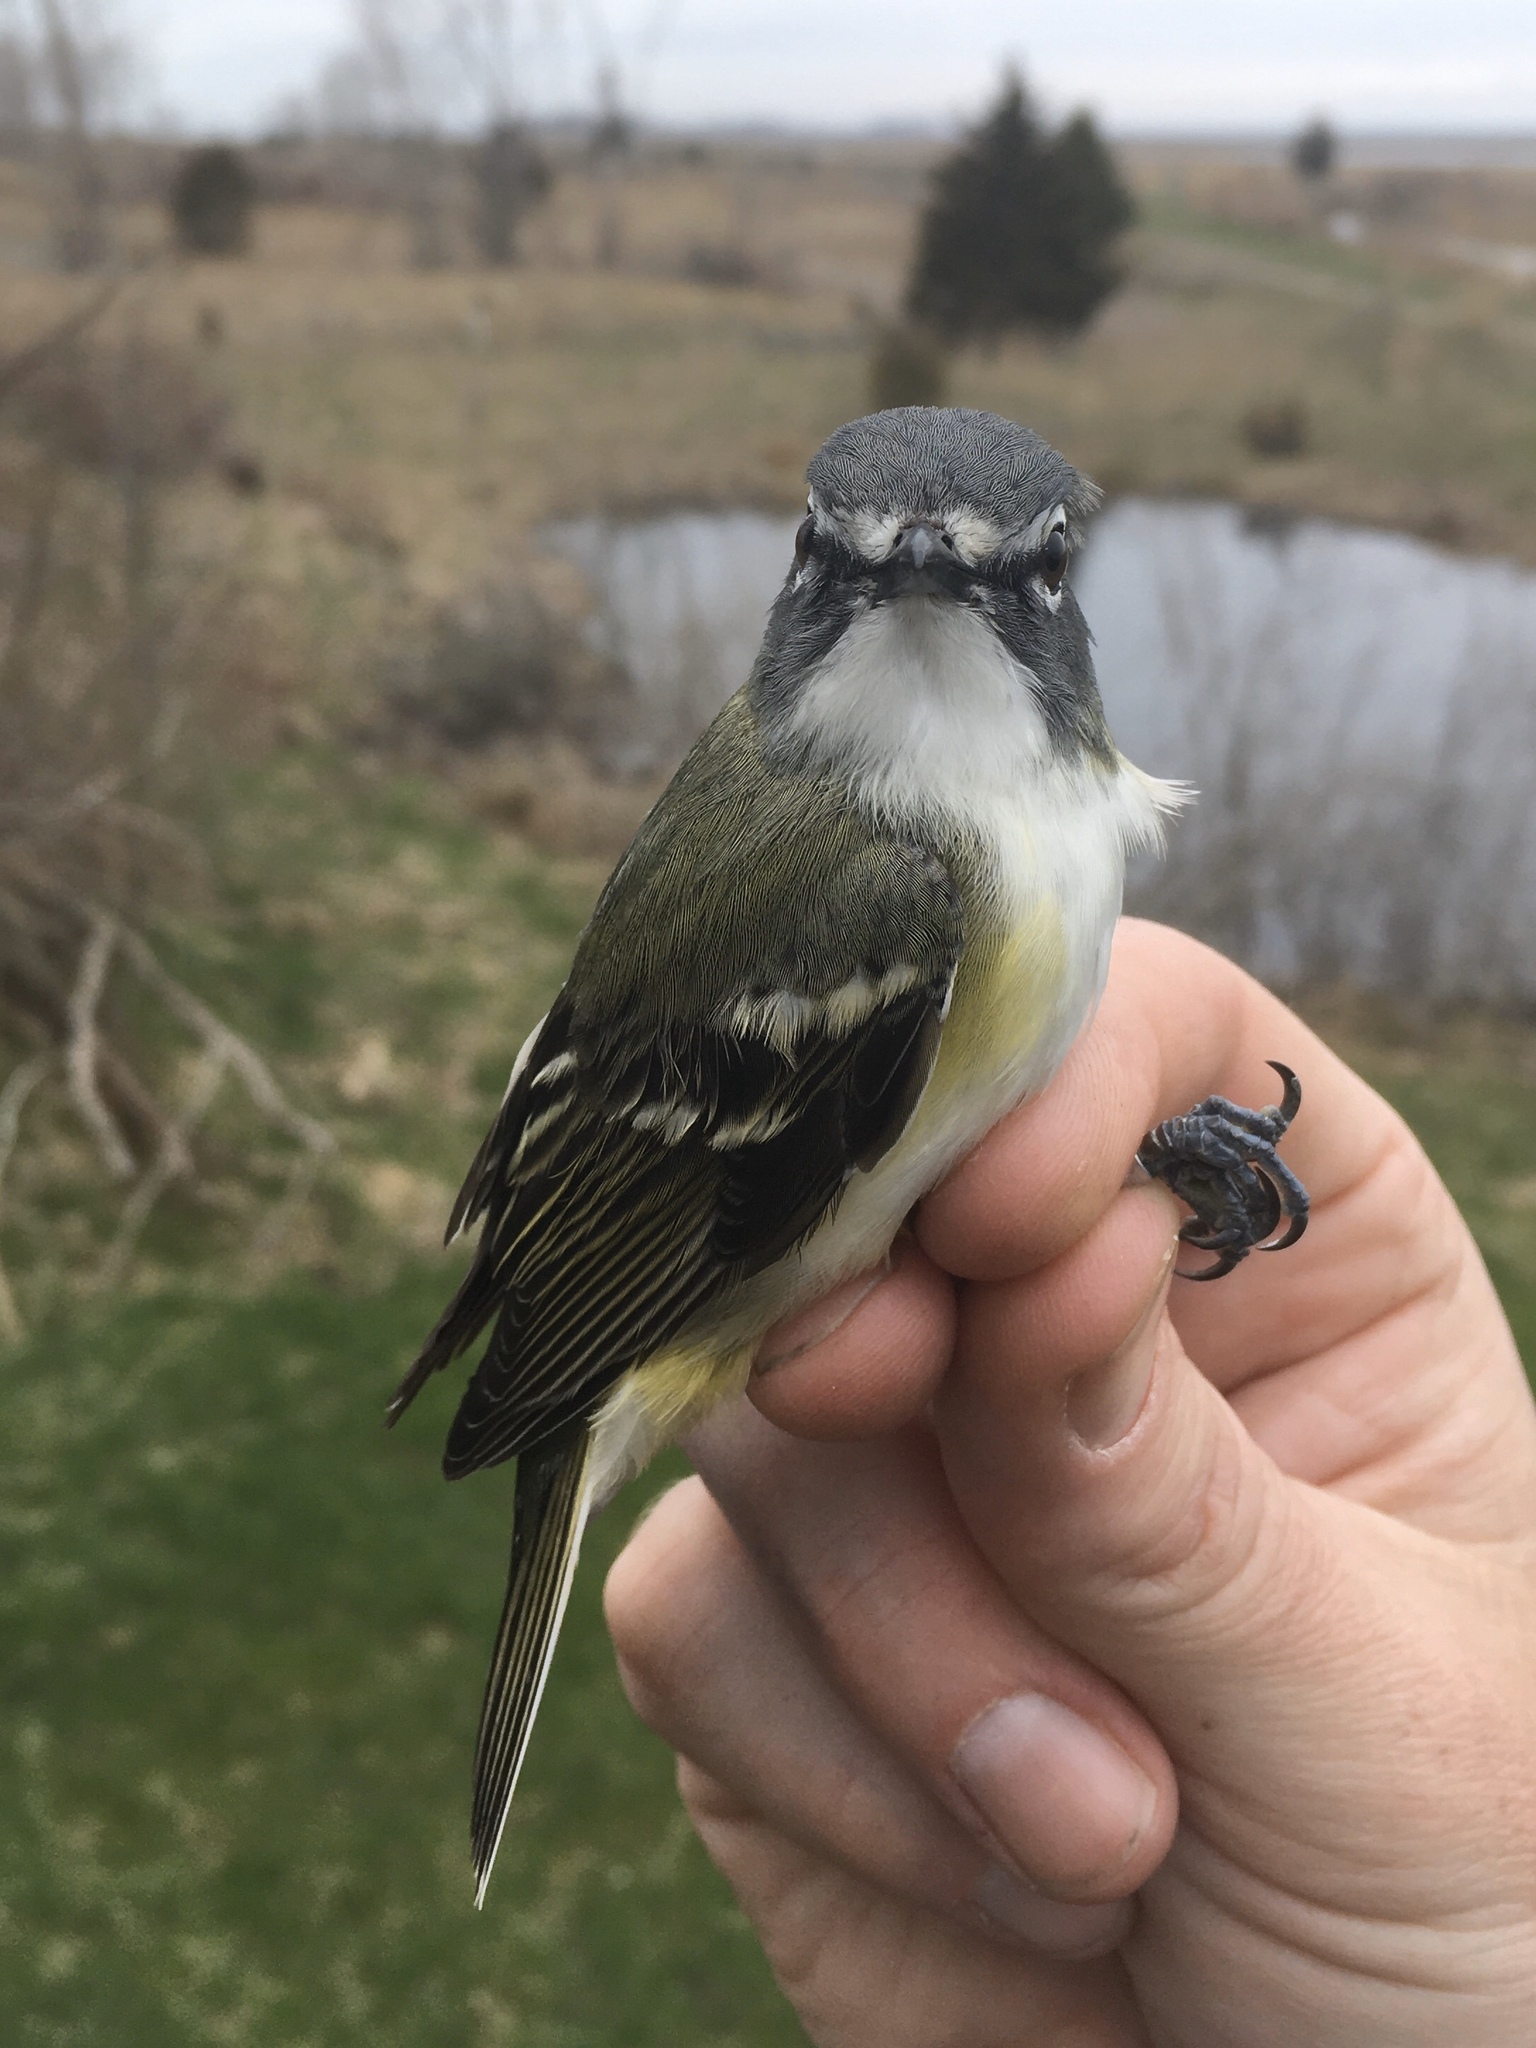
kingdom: Animalia
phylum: Chordata
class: Aves
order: Passeriformes
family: Vireonidae
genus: Vireo
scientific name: Vireo solitarius
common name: Blue-headed vireo
